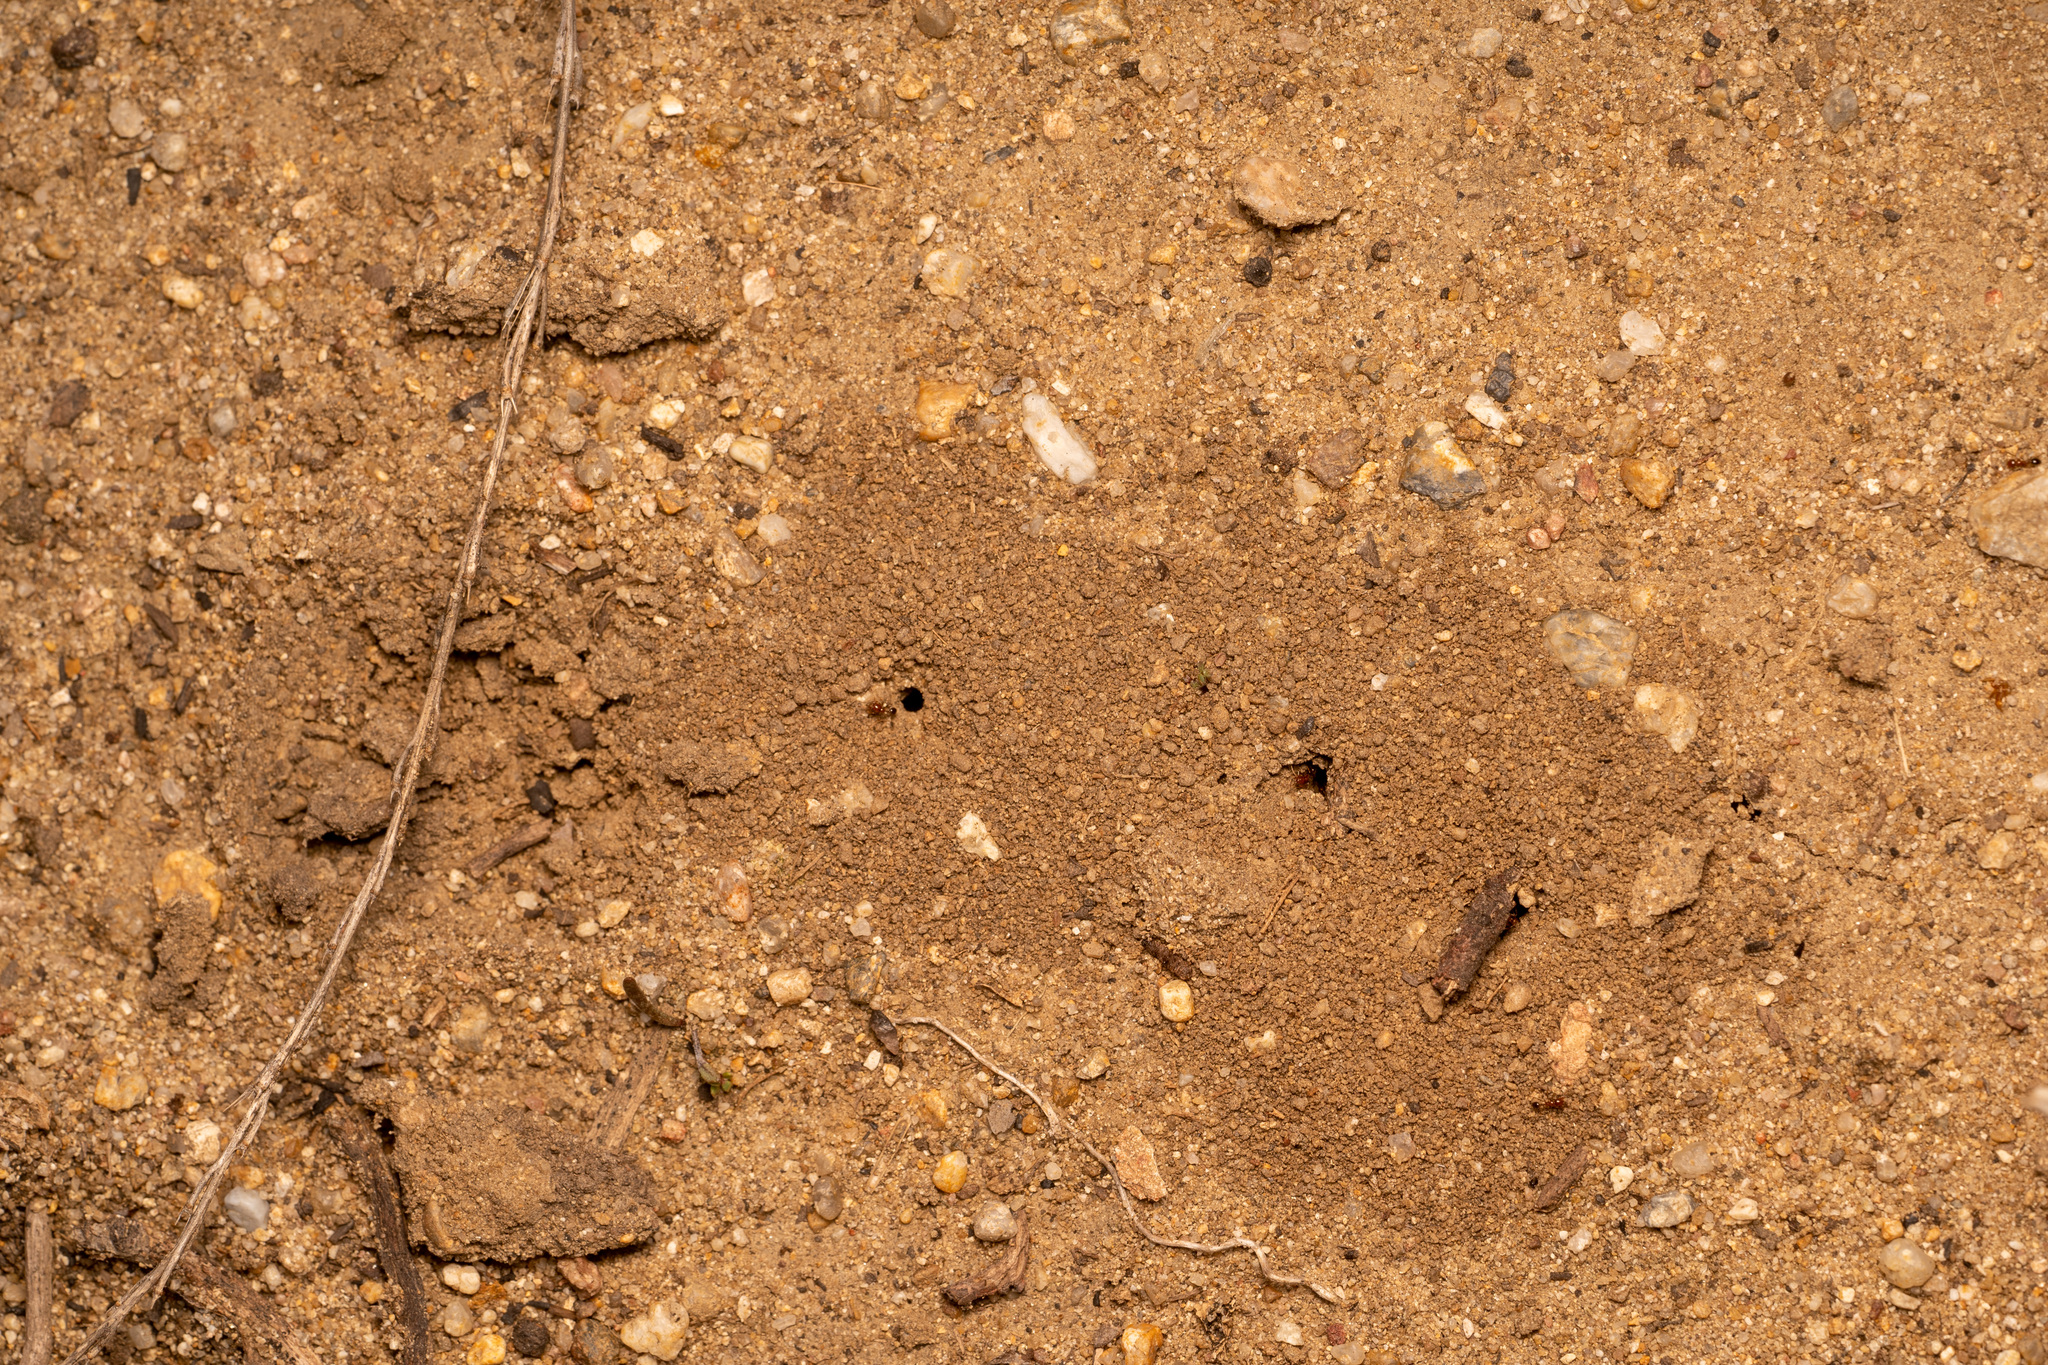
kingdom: Animalia
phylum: Arthropoda
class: Insecta
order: Hymenoptera
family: Formicidae
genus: Solenopsis
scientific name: Solenopsis xyloni
